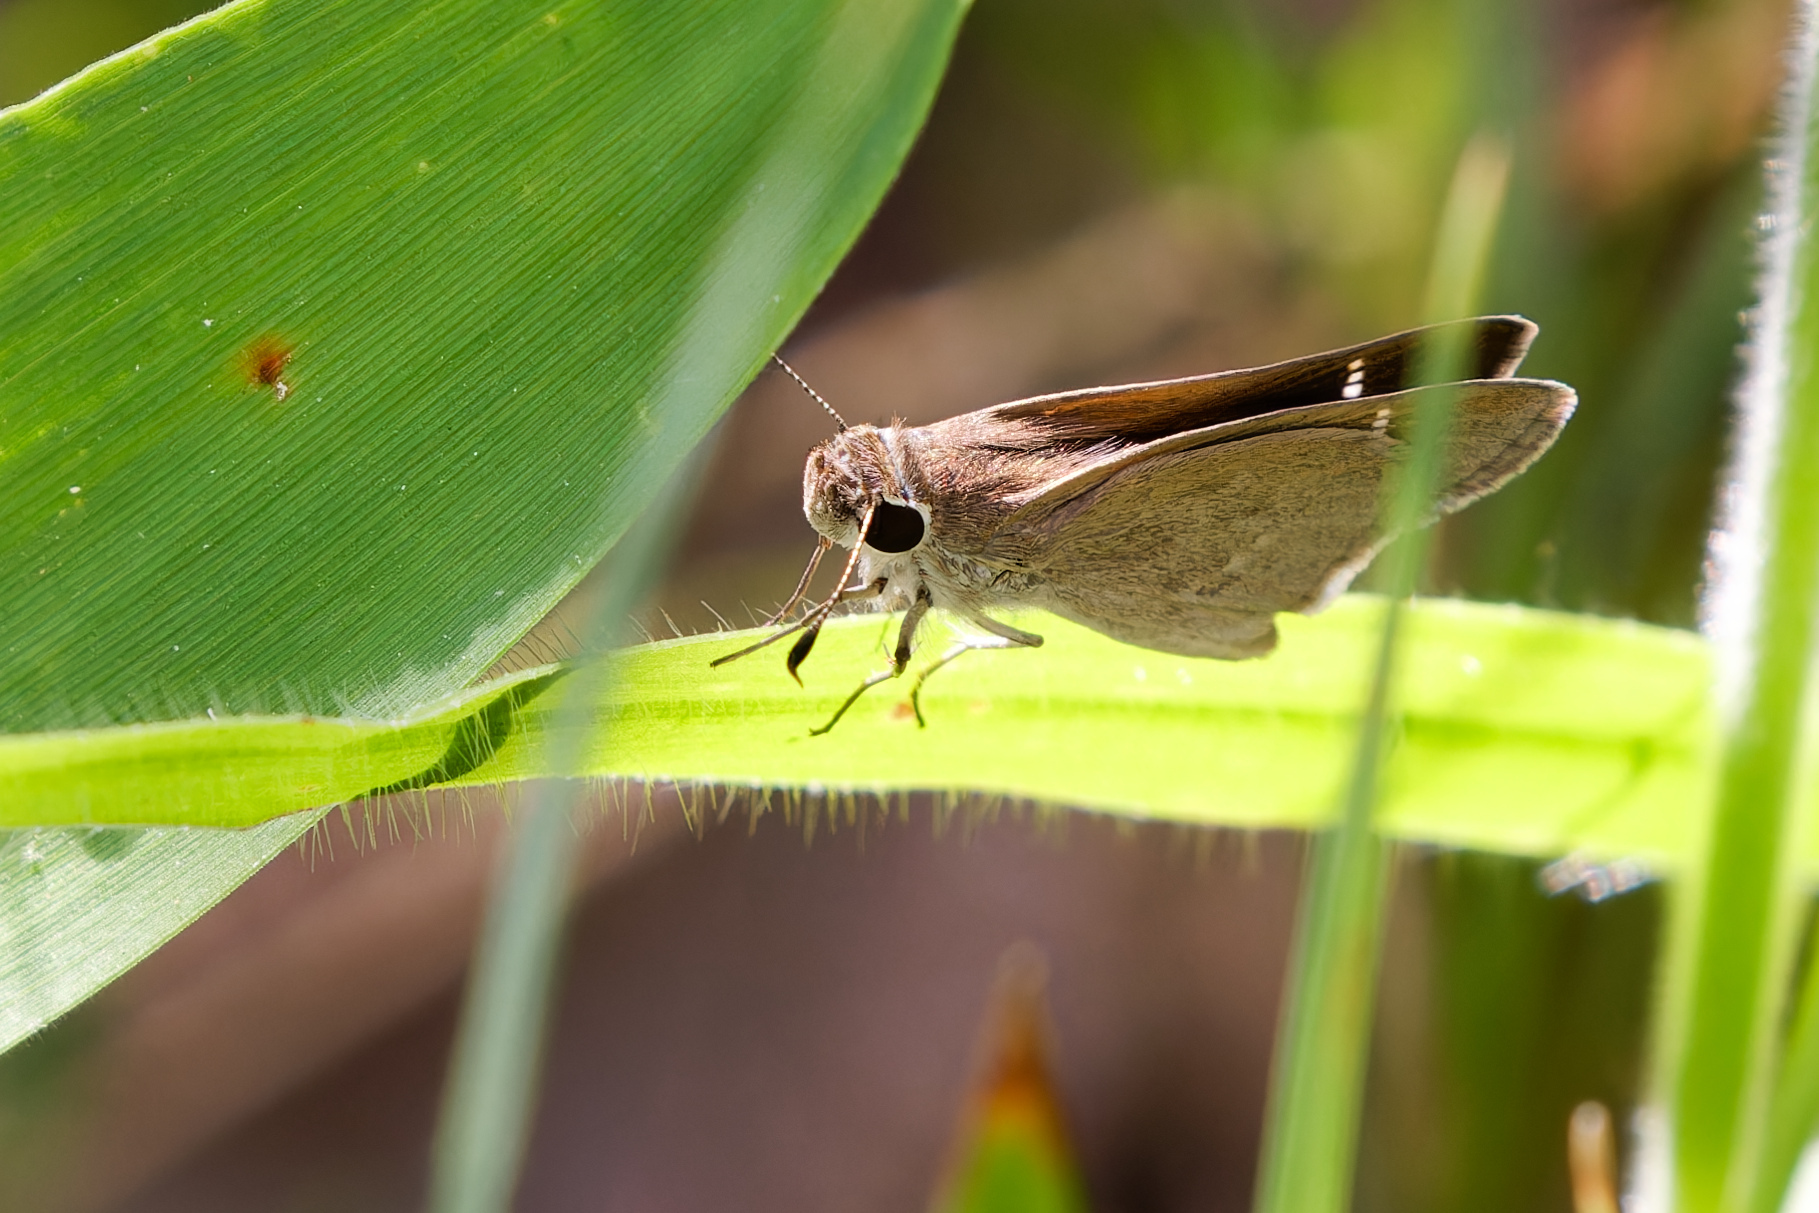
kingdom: Animalia
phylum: Arthropoda
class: Insecta
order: Lepidoptera
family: Hesperiidae
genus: Lerodea
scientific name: Lerodea eufala
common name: Eufala skipper
